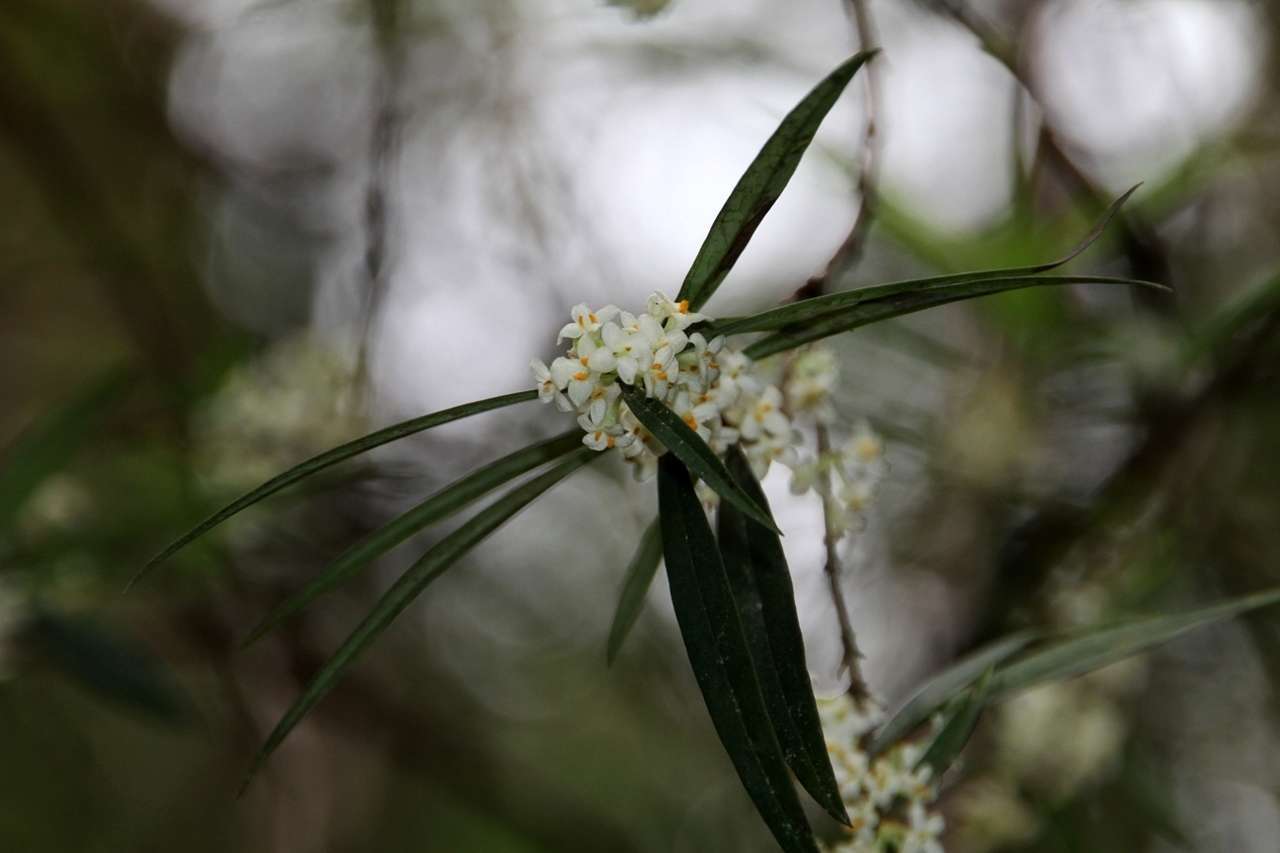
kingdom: Plantae
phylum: Tracheophyta
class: Magnoliopsida
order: Malvales
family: Thymelaeaceae
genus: Pimelea
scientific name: Pimelea axiflora
